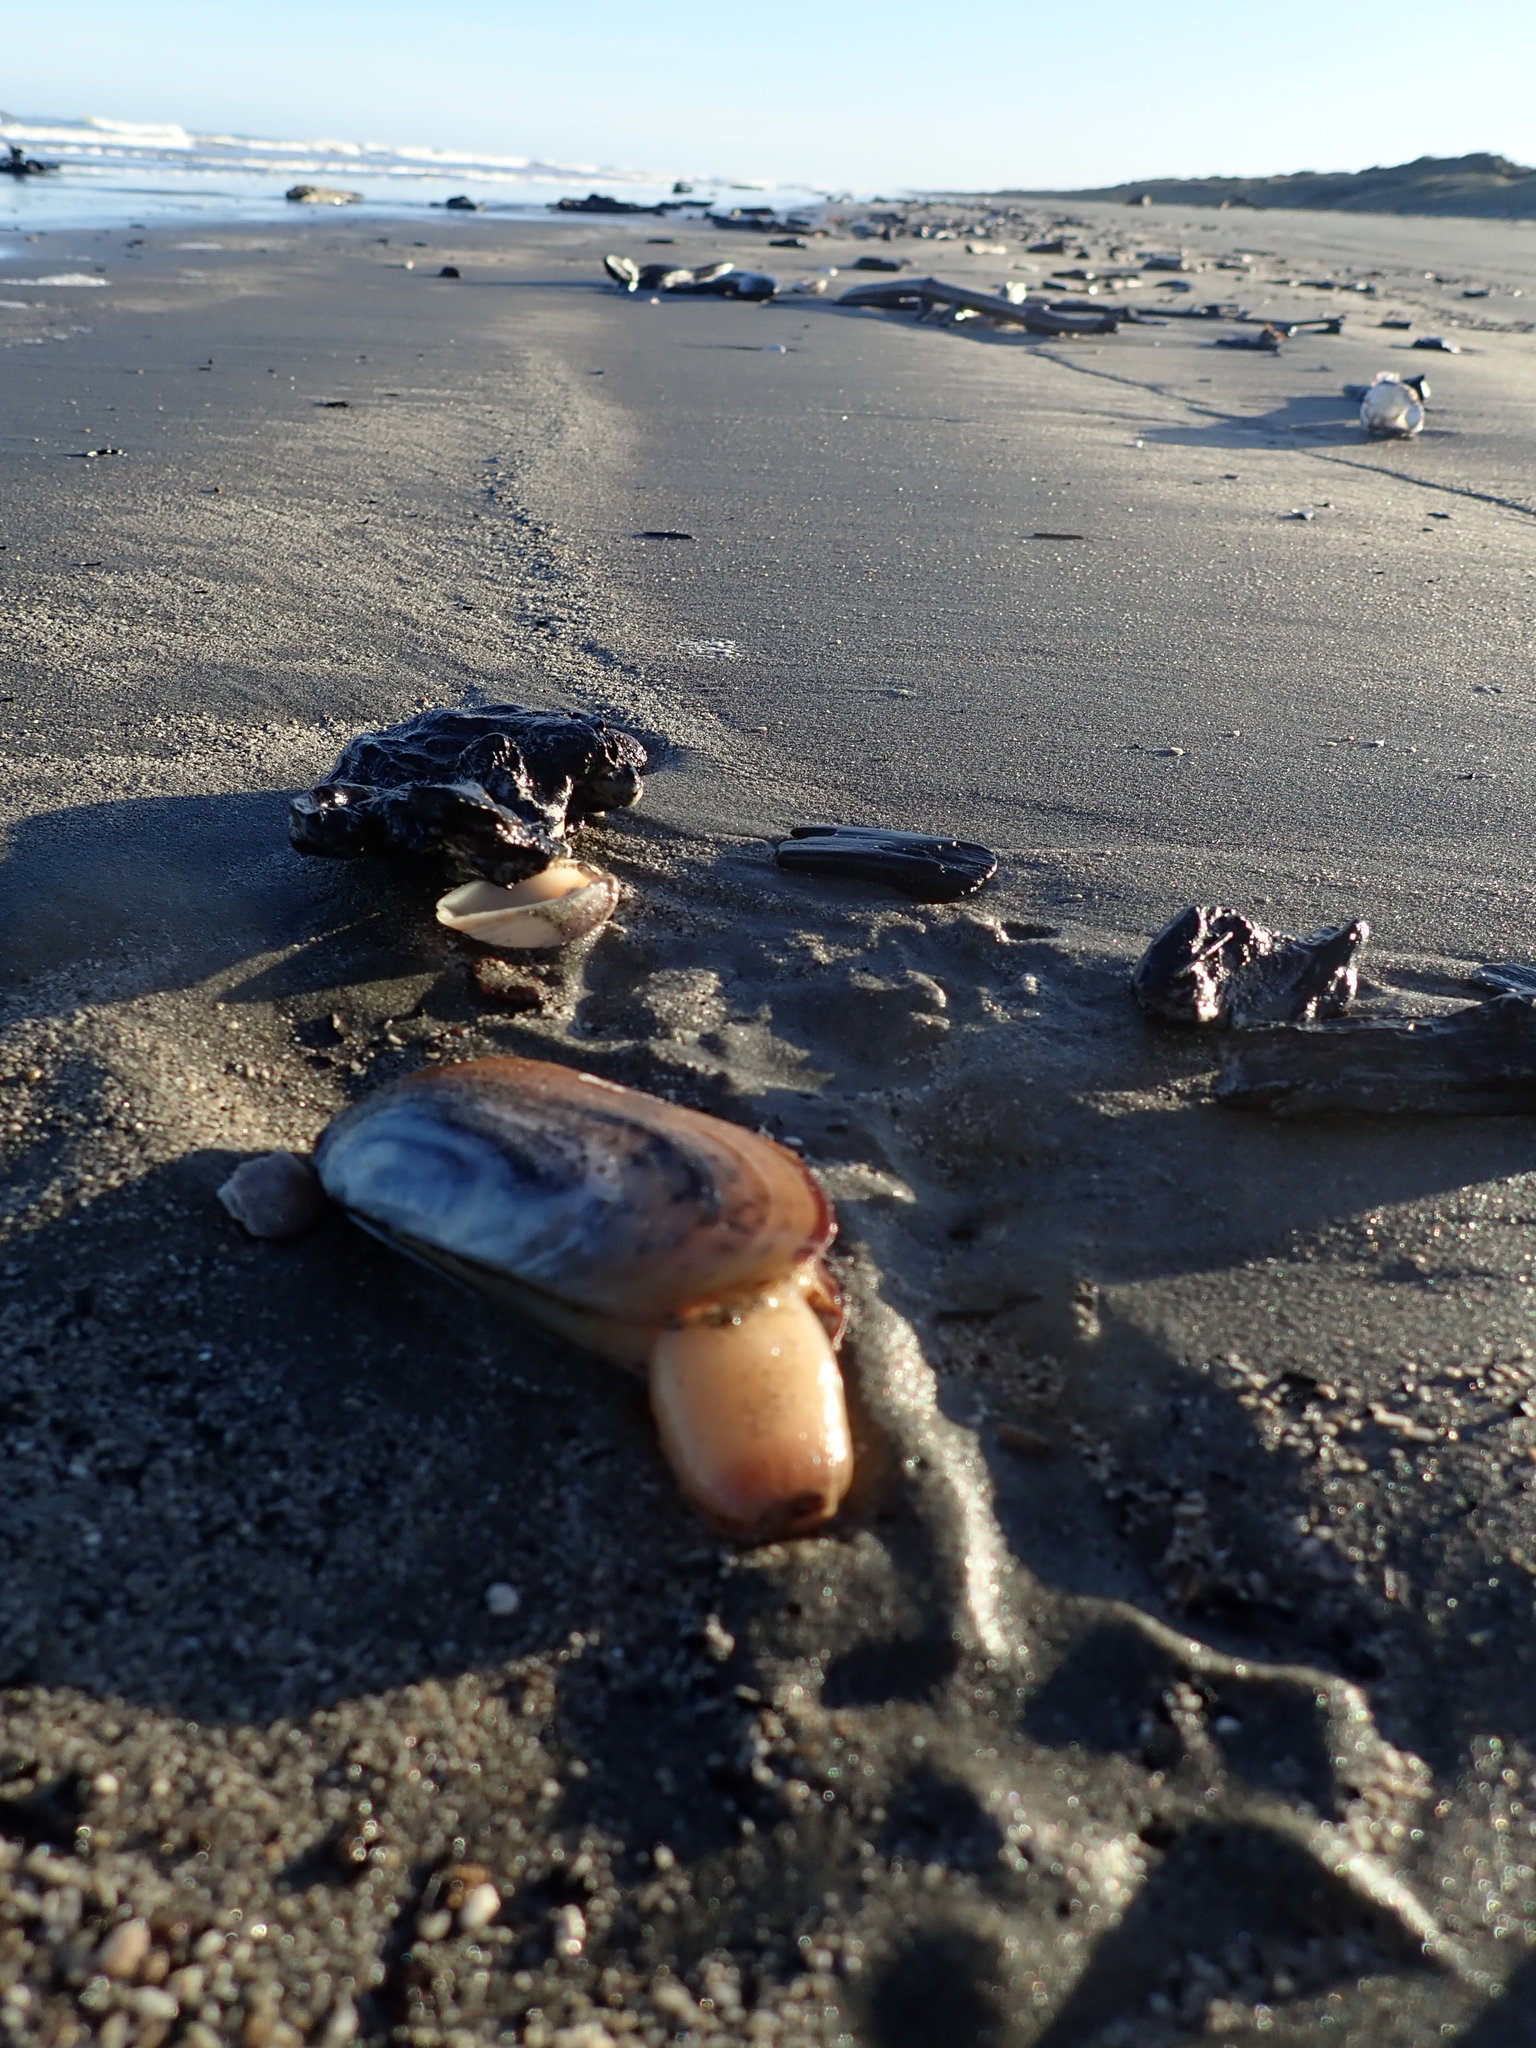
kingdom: Animalia
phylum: Mollusca
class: Bivalvia
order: Venerida
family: Mactridae
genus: Zenatia
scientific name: Zenatia acinaces
